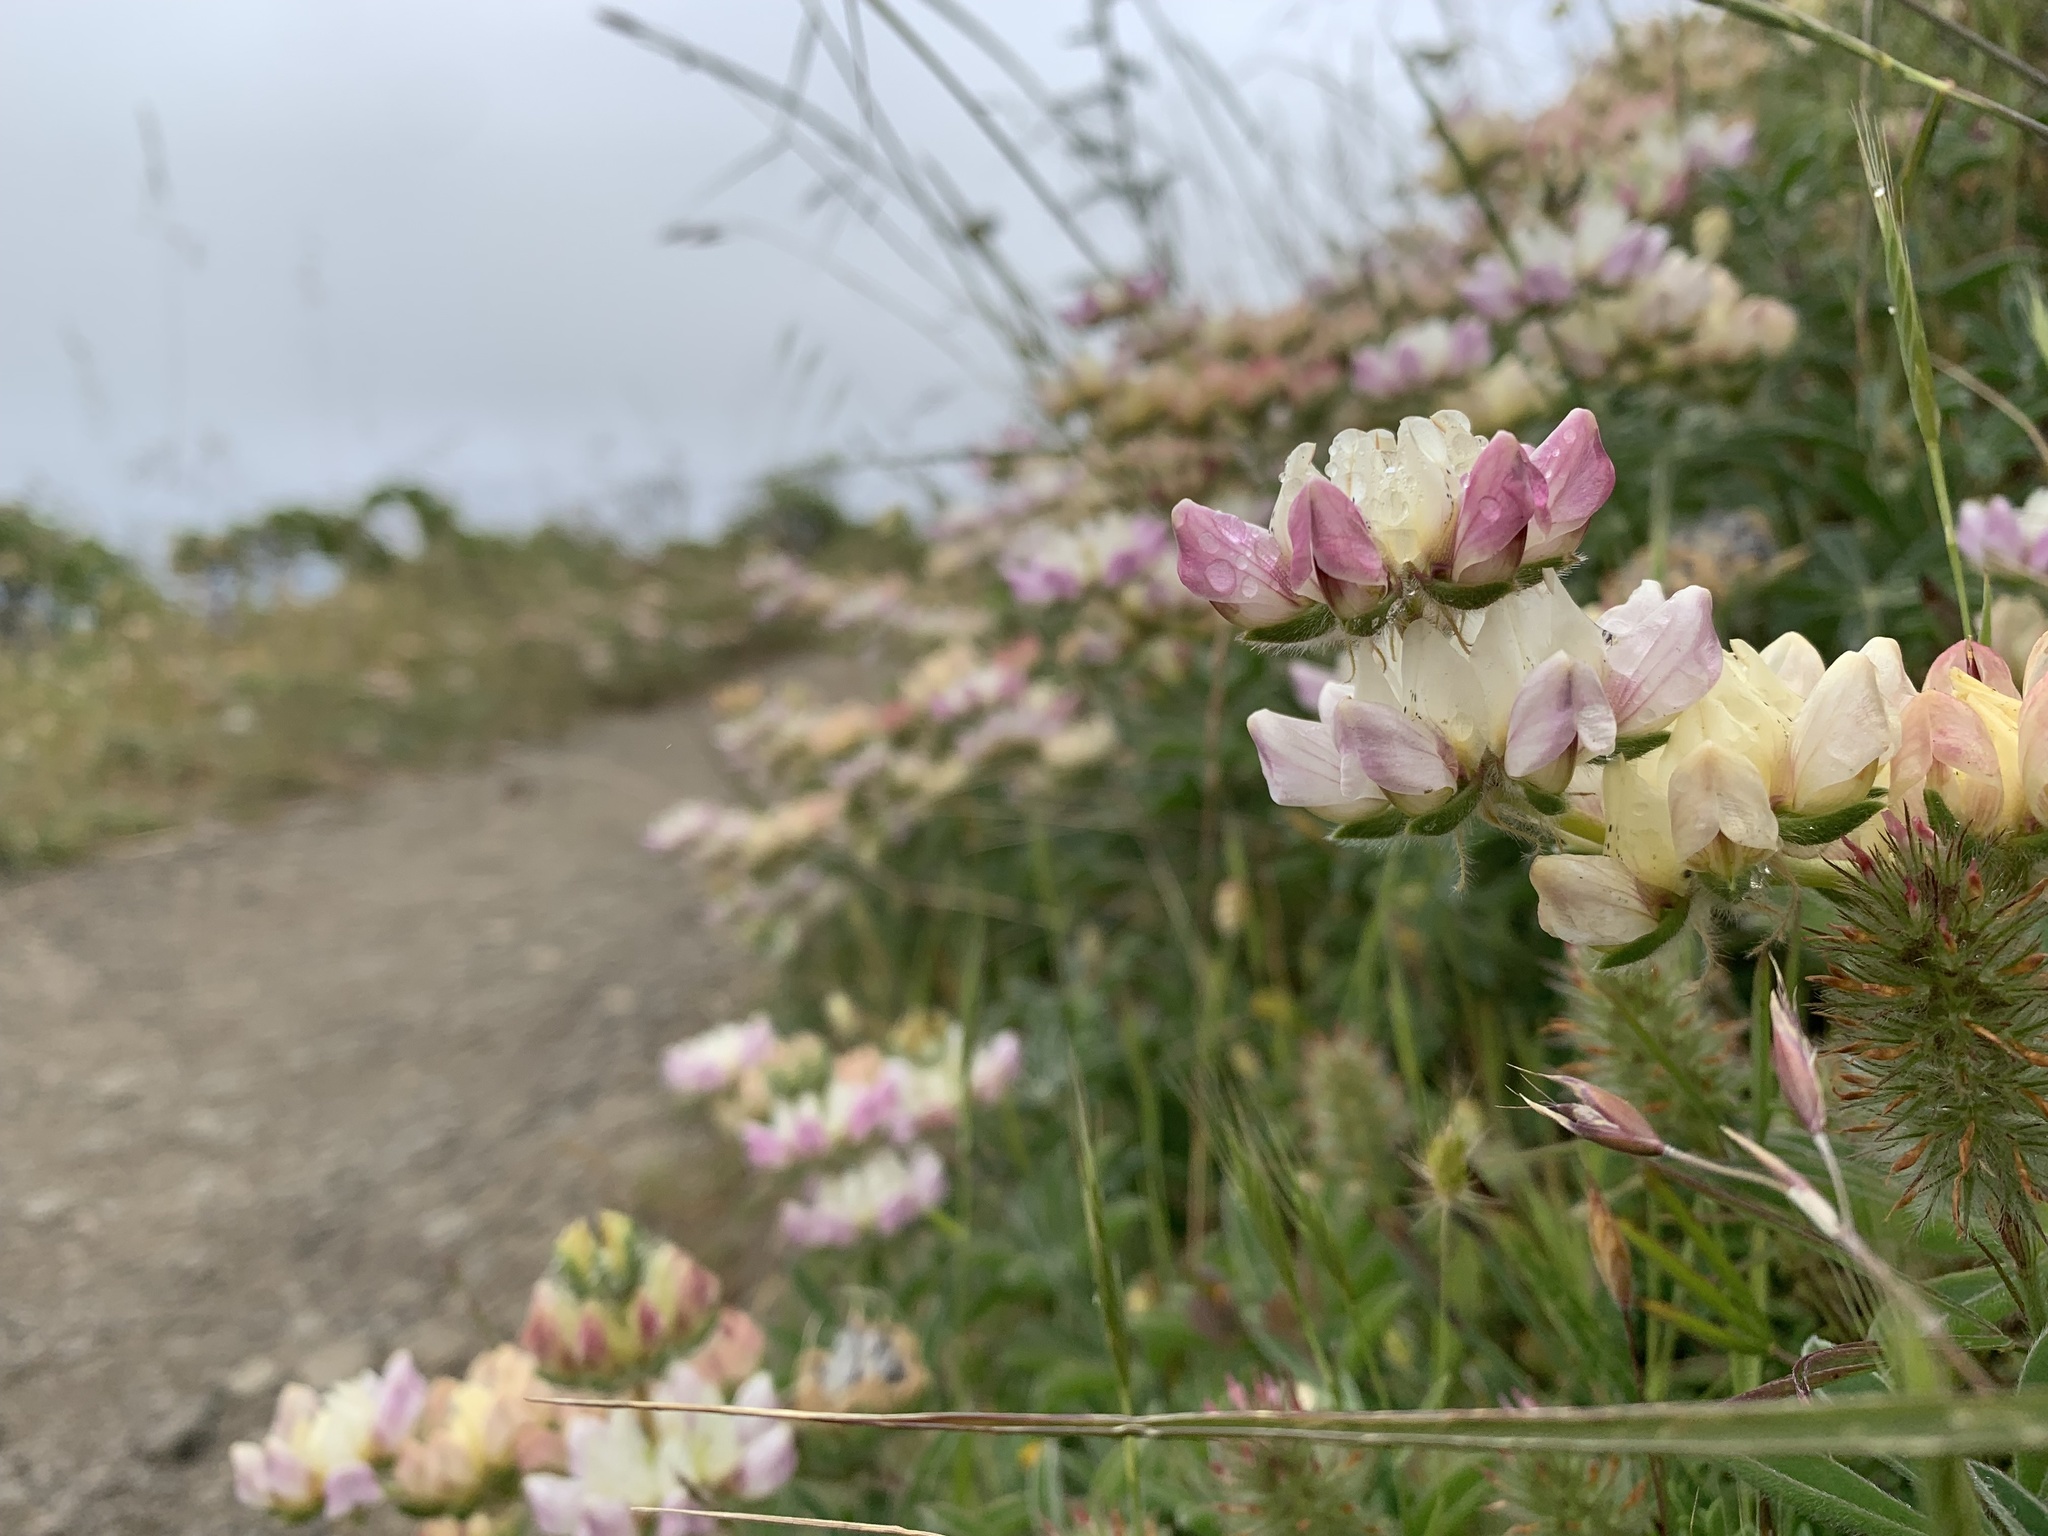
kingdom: Plantae
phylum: Tracheophyta
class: Magnoliopsida
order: Fabales
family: Fabaceae
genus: Lupinus
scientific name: Lupinus microcarpus
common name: Chick lupine
